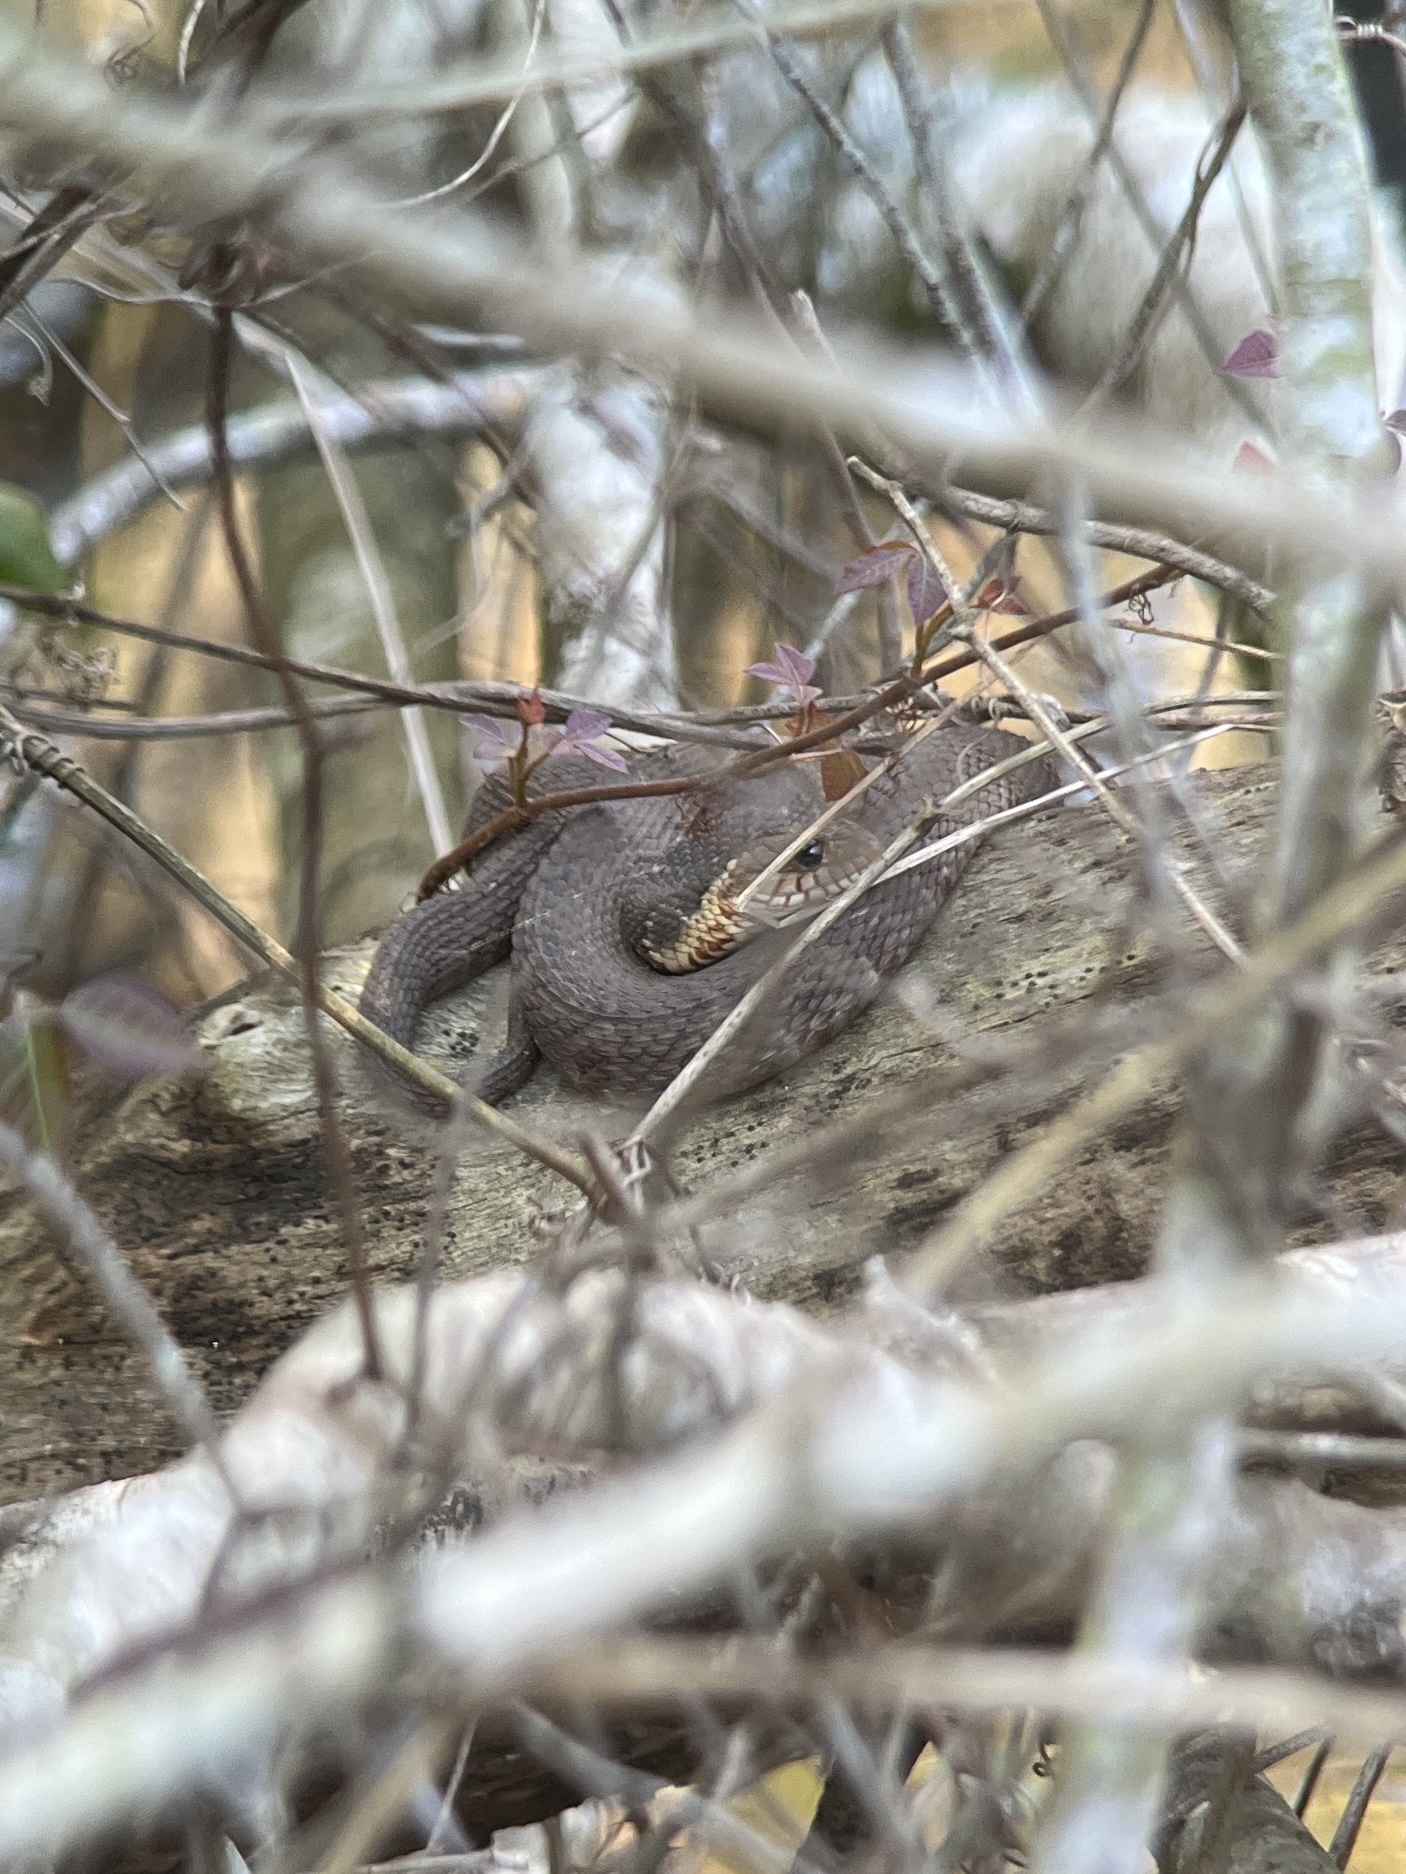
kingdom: Animalia
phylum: Chordata
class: Squamata
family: Colubridae
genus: Nerodia
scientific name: Nerodia fasciata
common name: Southern water snake
